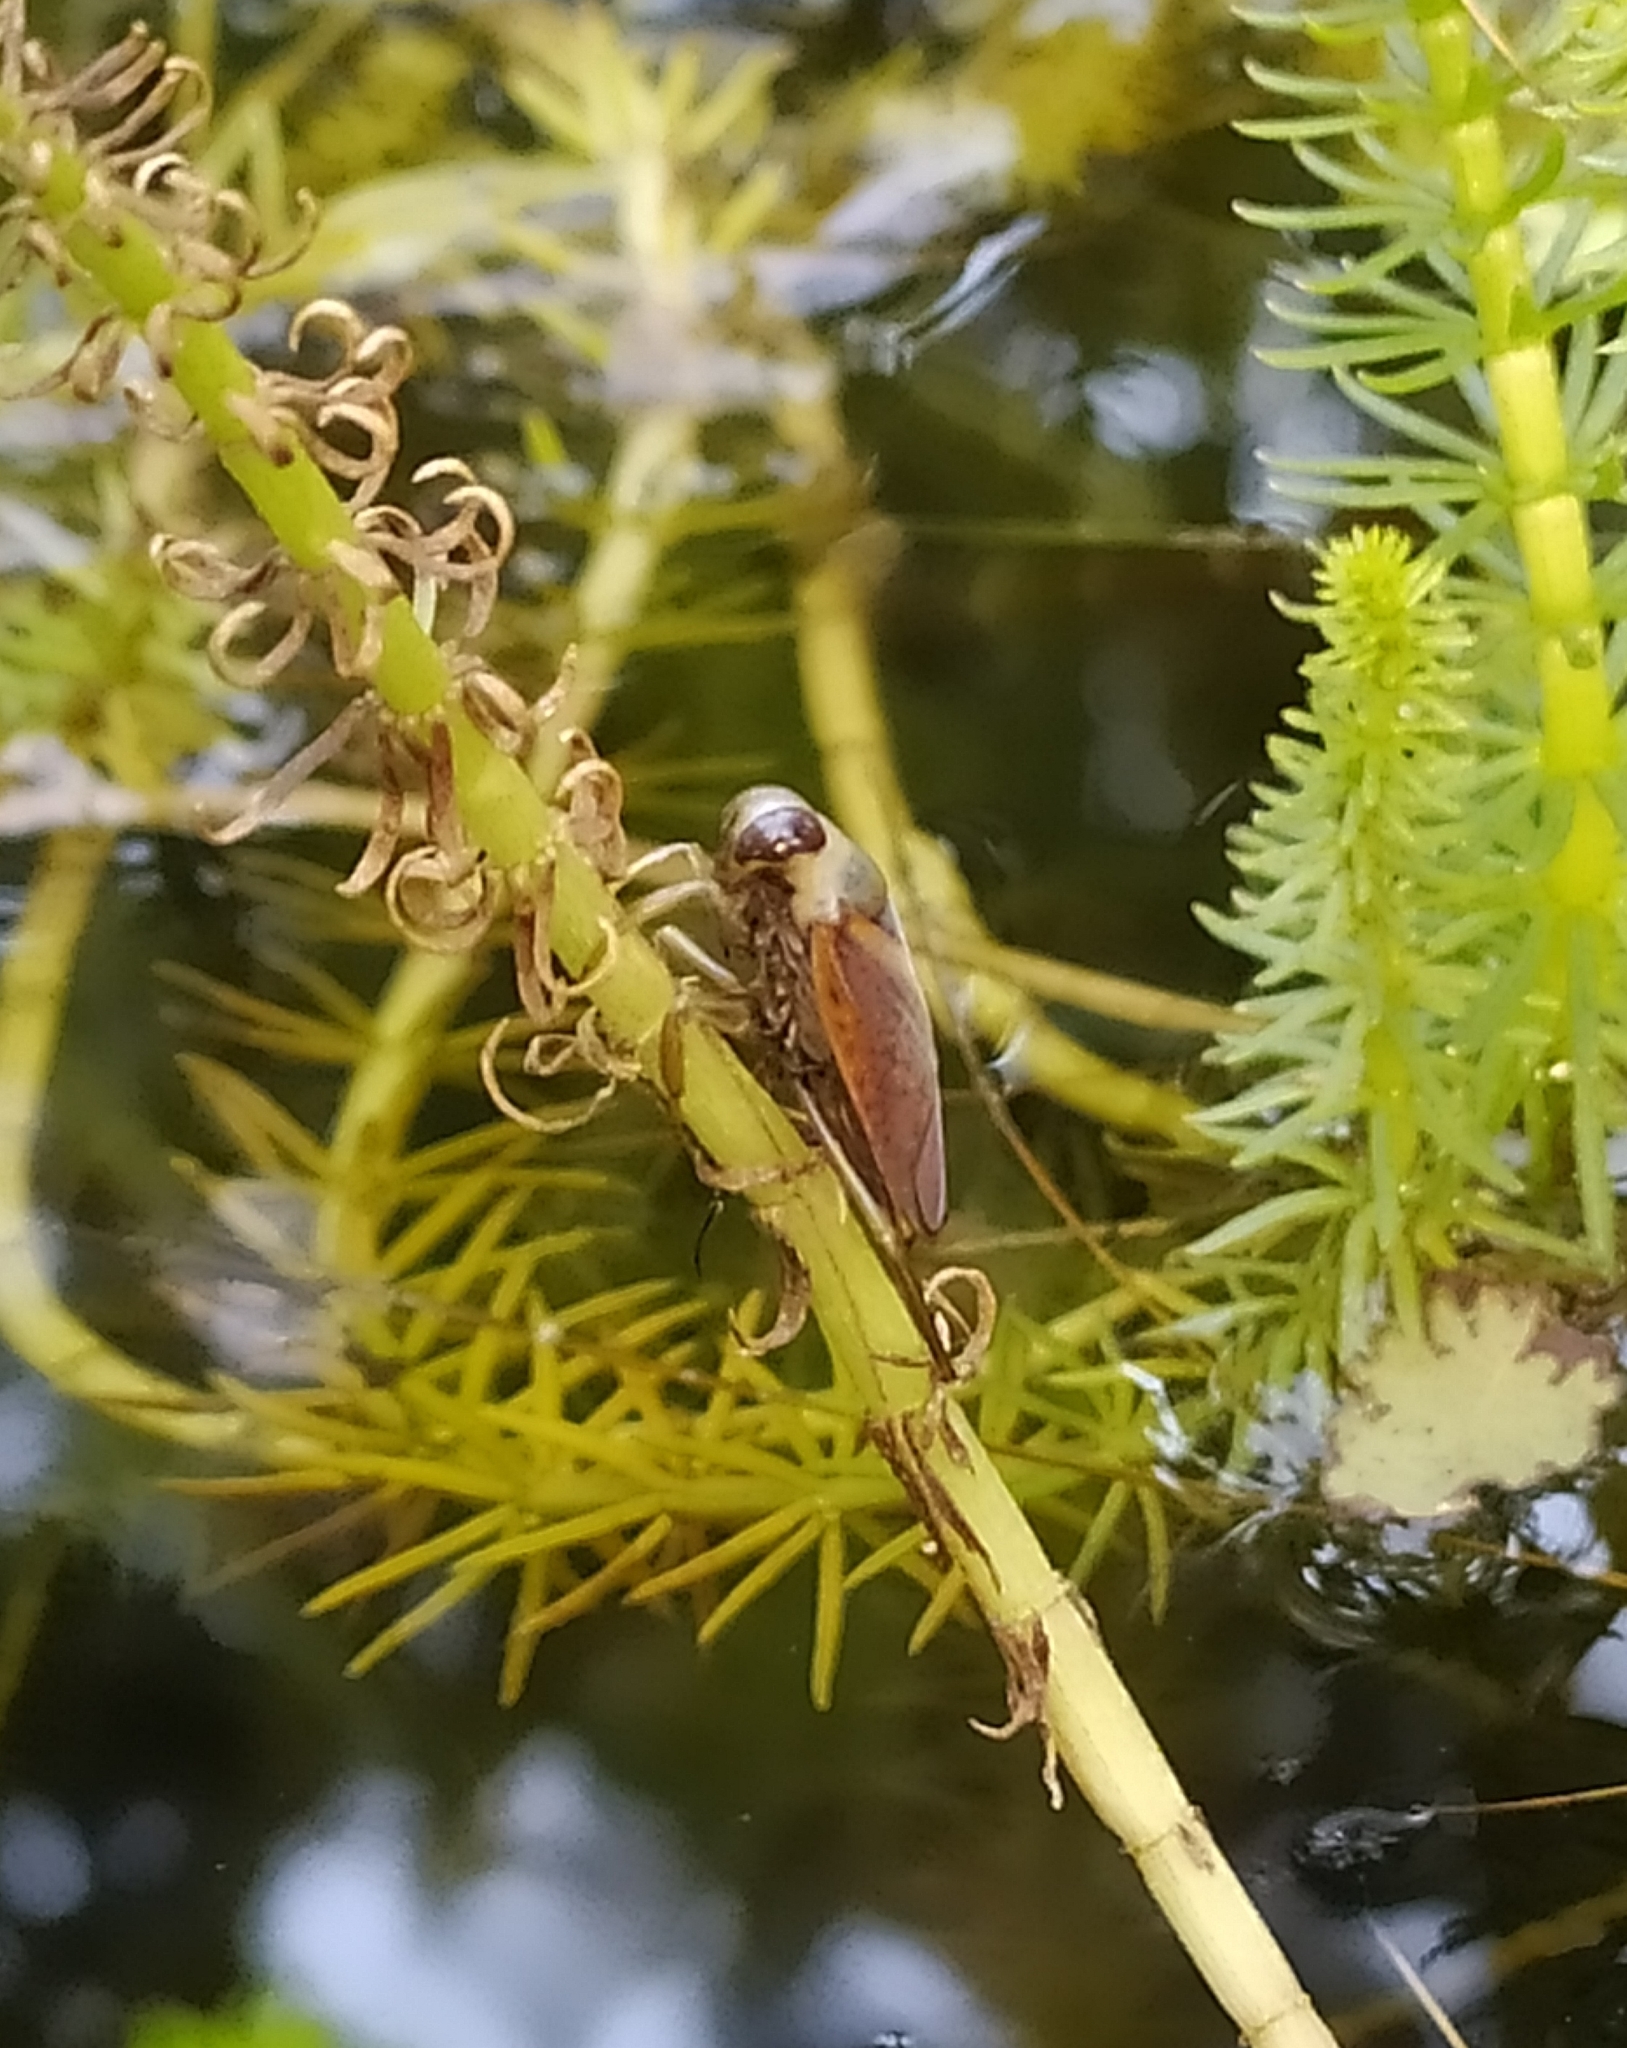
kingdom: Animalia
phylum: Arthropoda
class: Insecta
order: Hemiptera
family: Notonectidae
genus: Notonecta
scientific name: Notonecta
